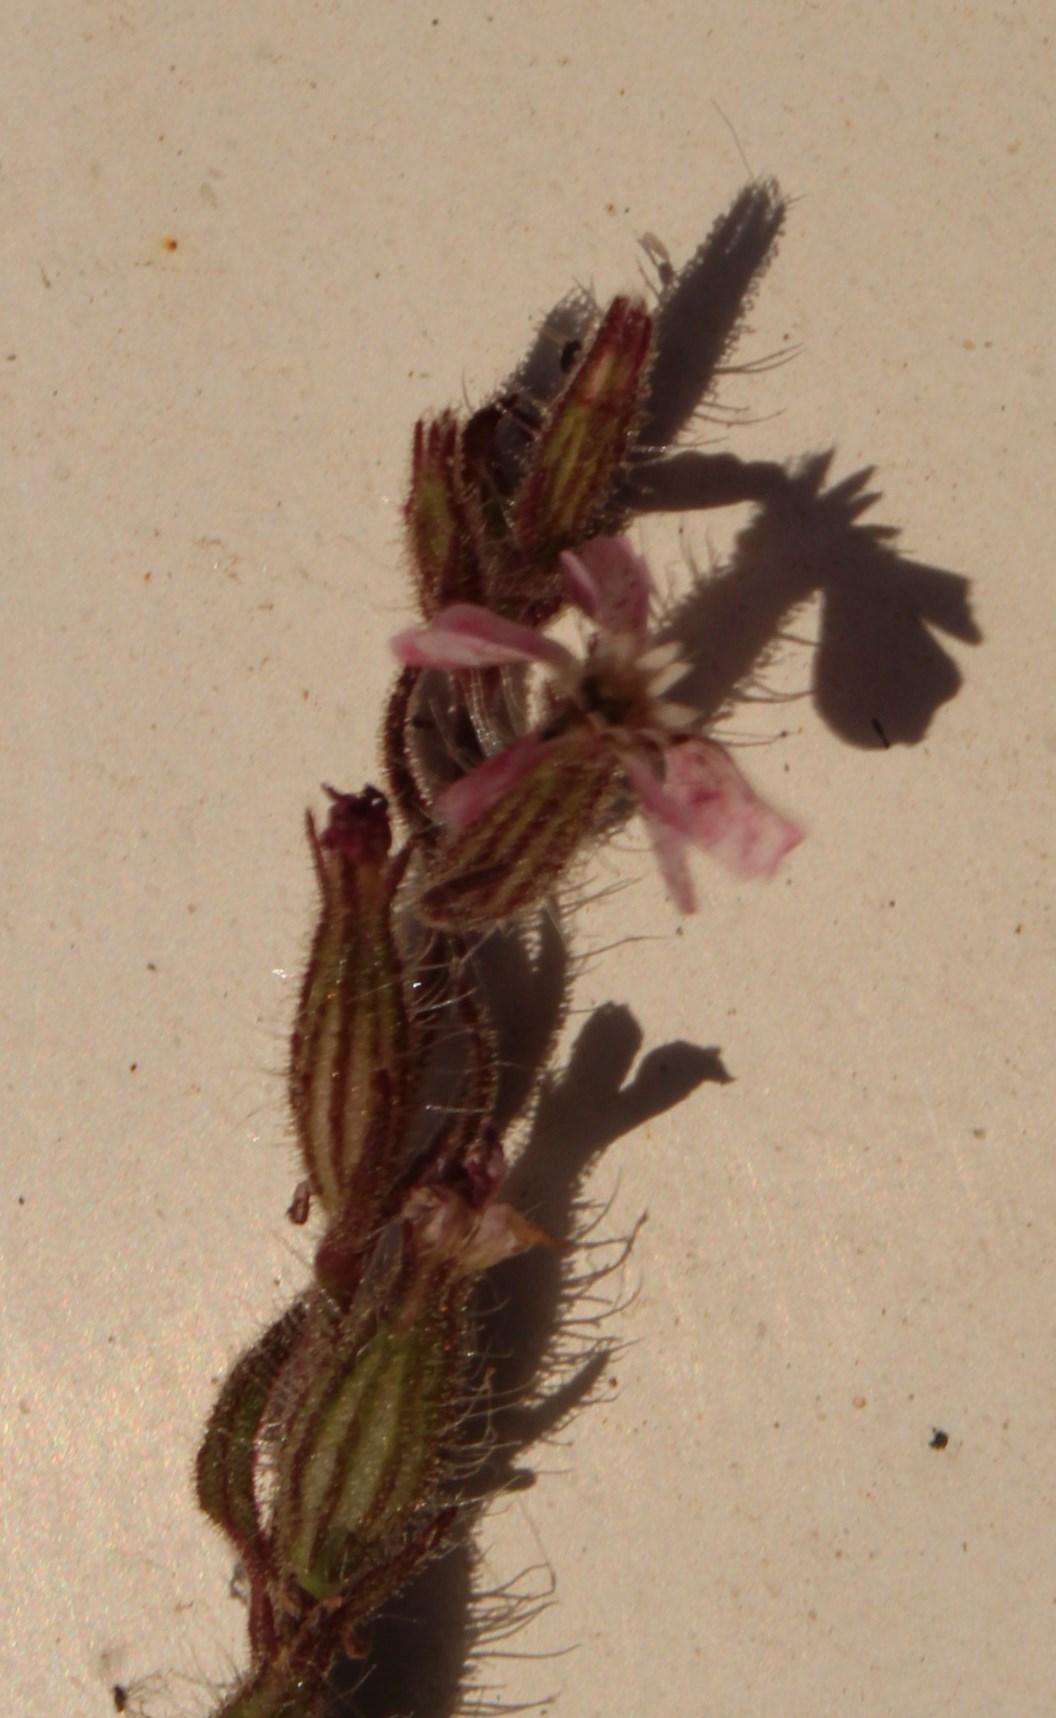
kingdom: Plantae
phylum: Tracheophyta
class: Magnoliopsida
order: Caryophyllales
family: Caryophyllaceae
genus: Silene
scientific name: Silene gallica
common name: Small-flowered catchfly
